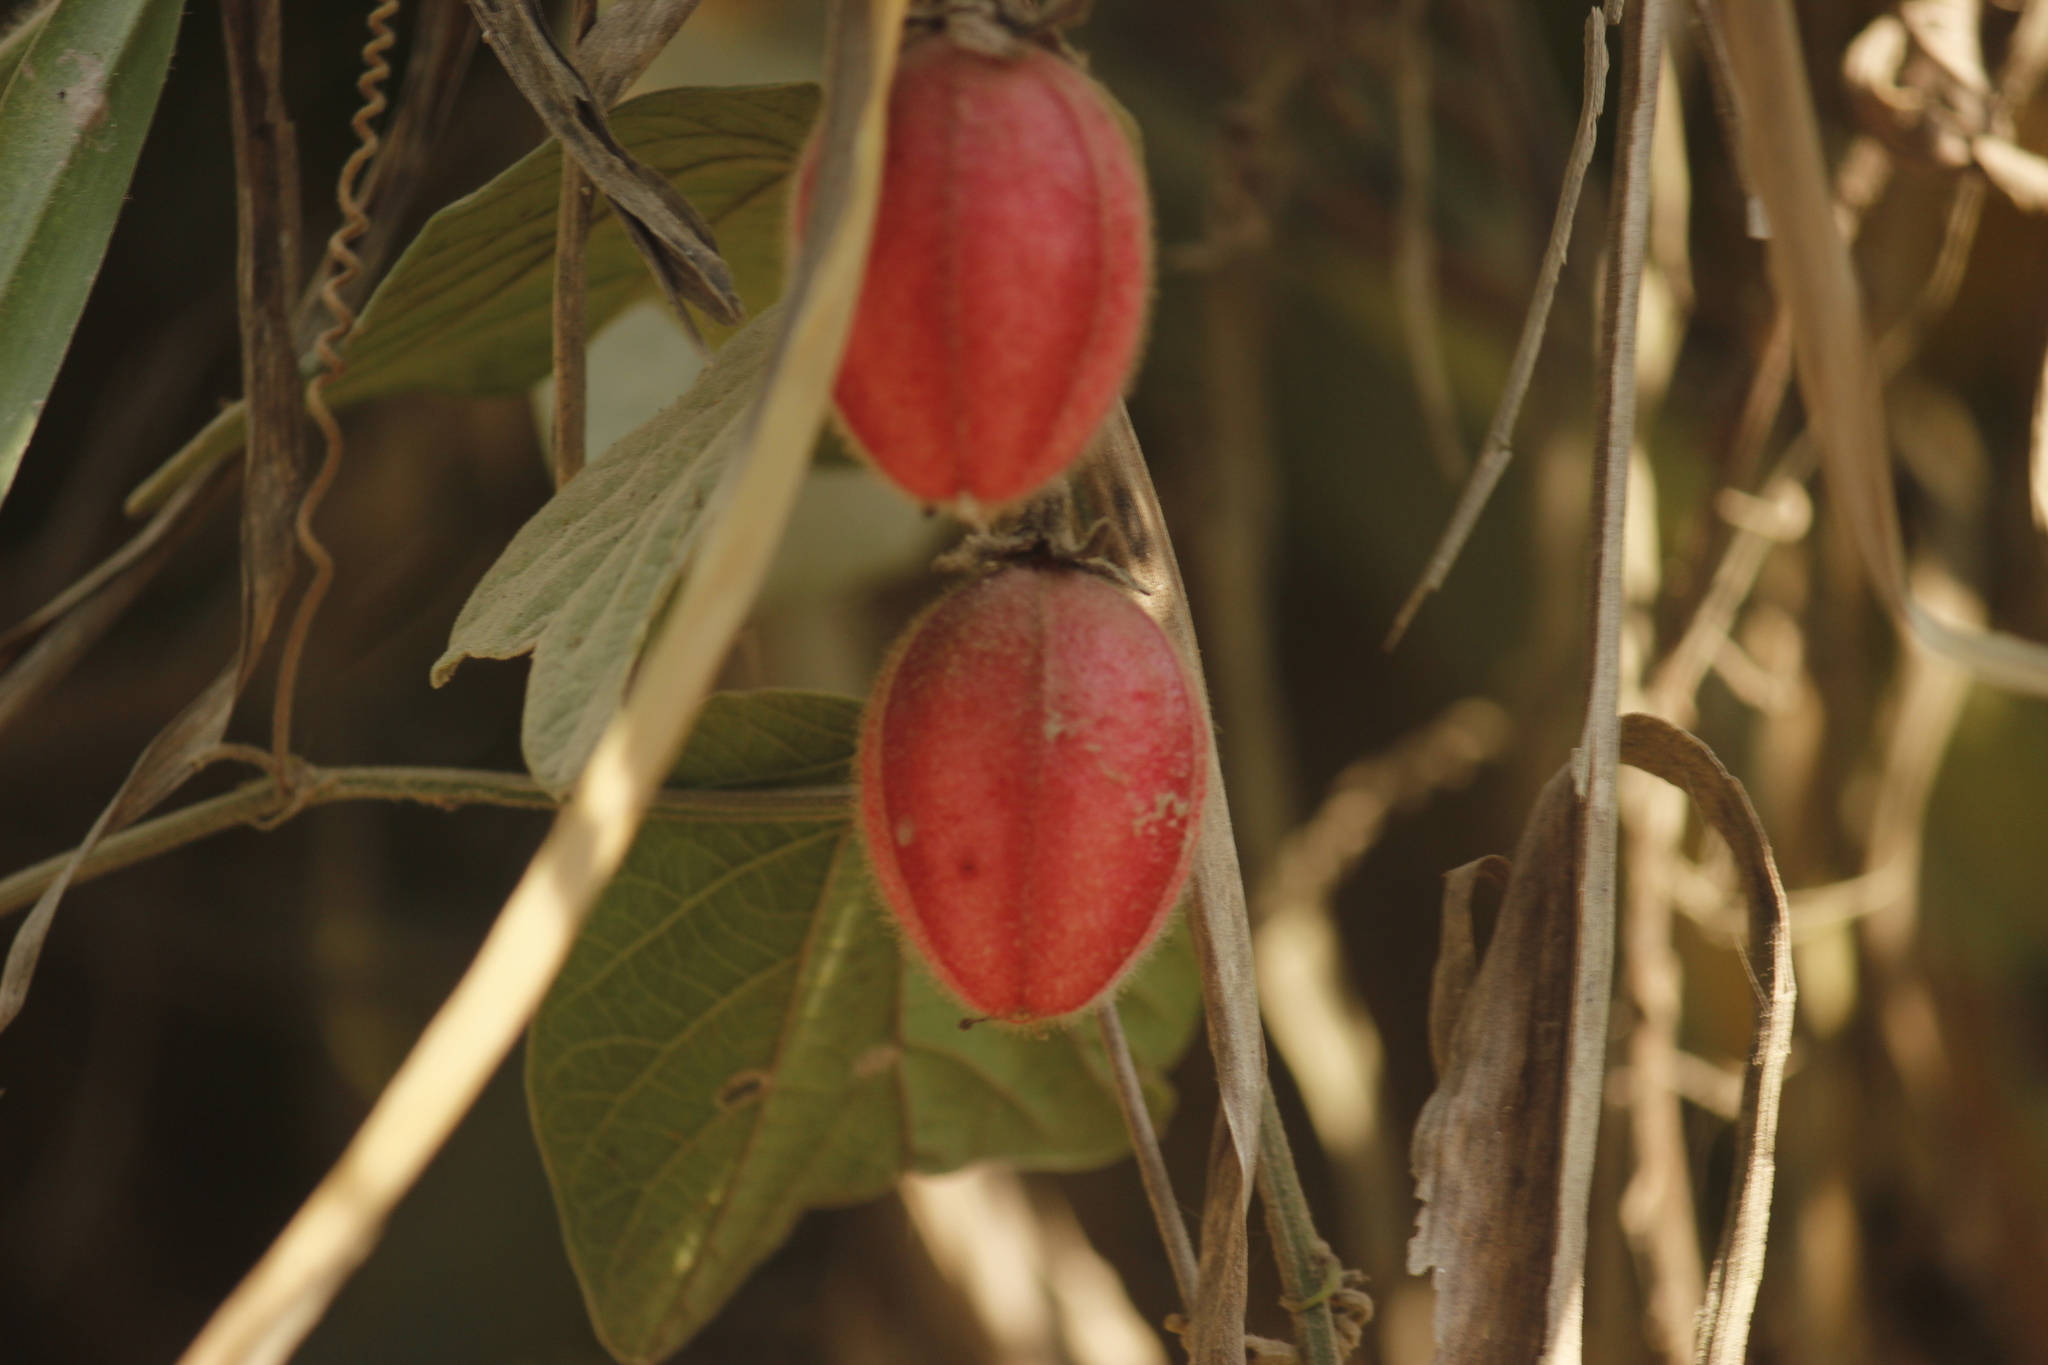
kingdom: Plantae
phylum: Tracheophyta
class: Magnoliopsida
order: Malpighiales
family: Passifloraceae
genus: Passiflora
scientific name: Passiflora cisnana
